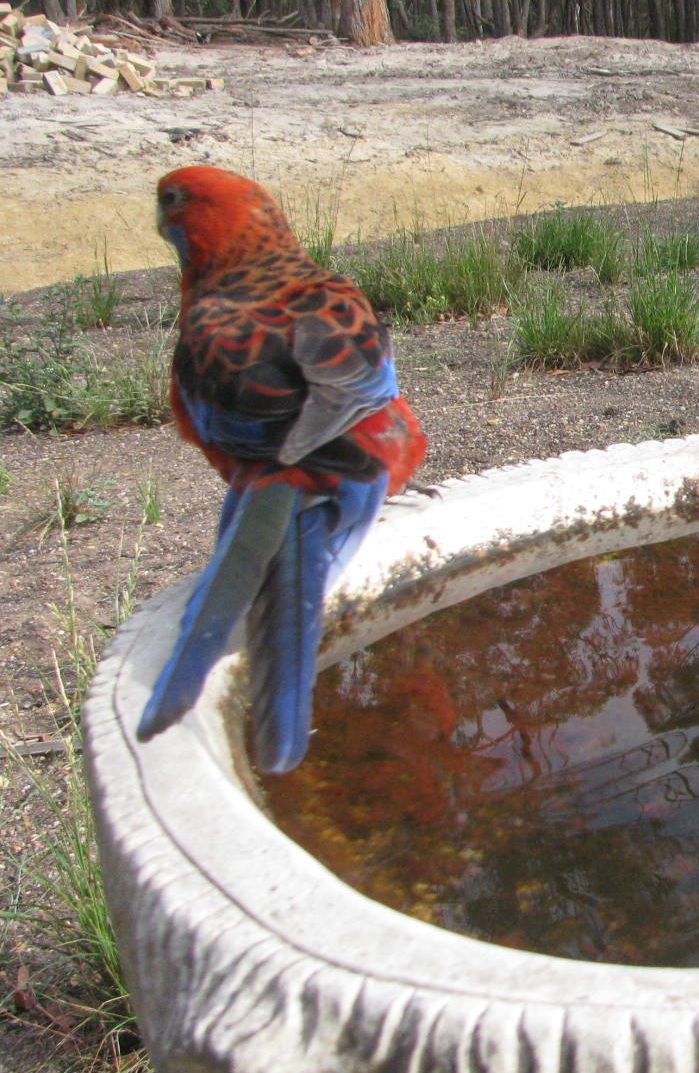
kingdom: Animalia
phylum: Chordata
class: Aves
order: Psittaciformes
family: Psittacidae
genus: Platycercus
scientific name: Platycercus elegans
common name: Crimson rosella
